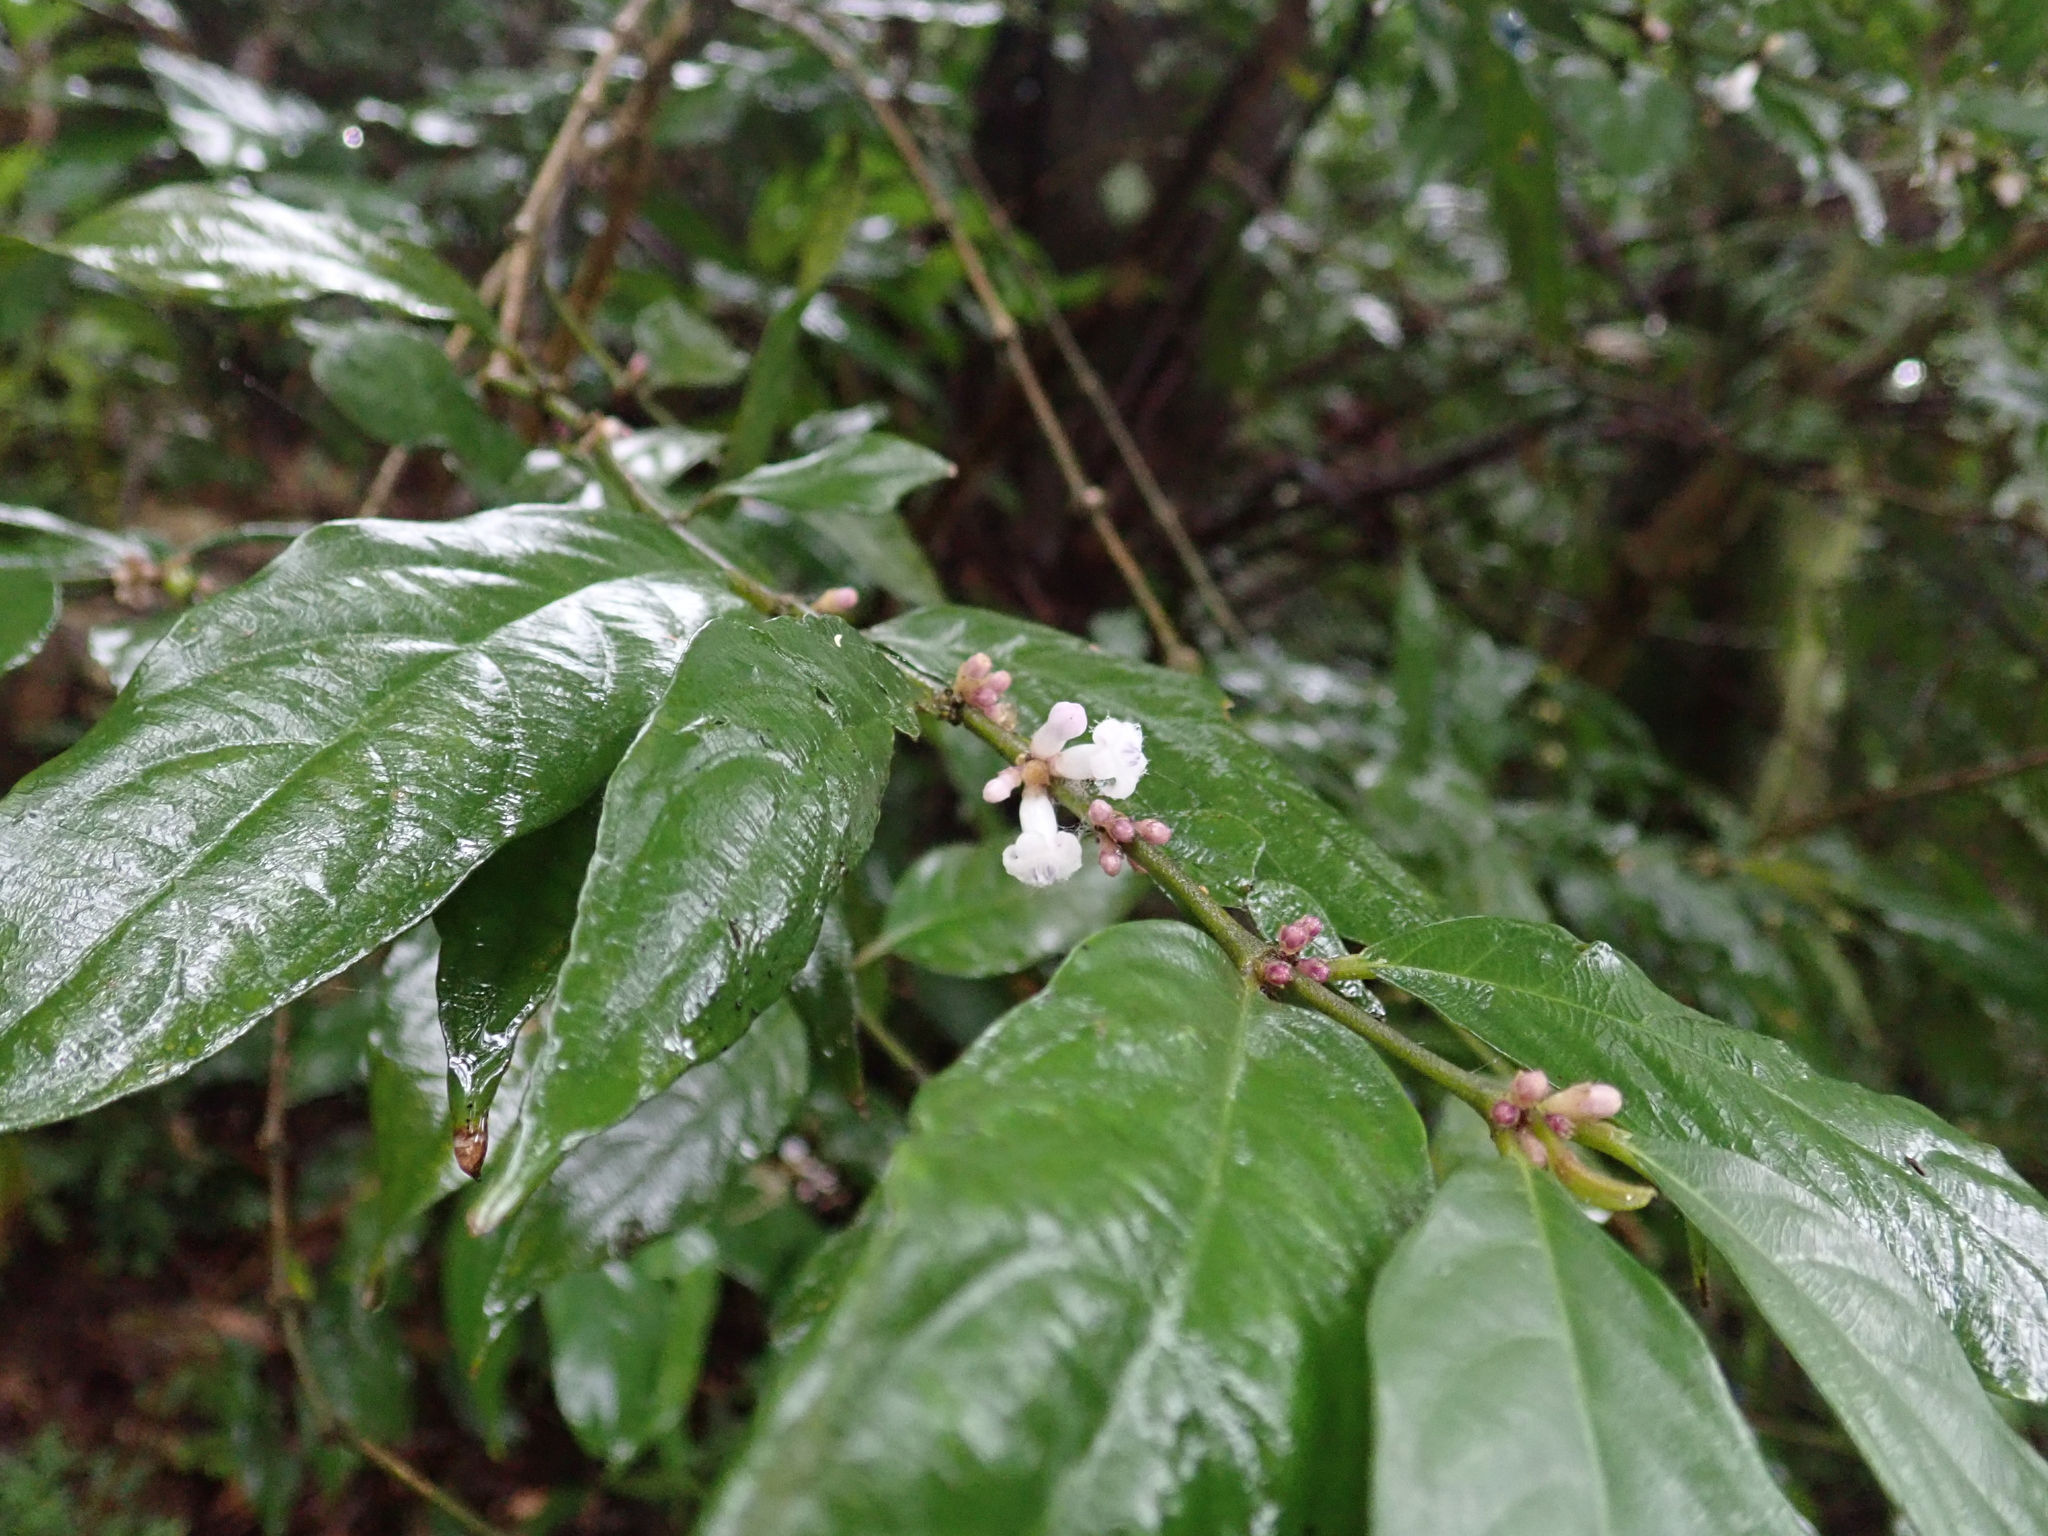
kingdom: Plantae
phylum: Tracheophyta
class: Magnoliopsida
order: Gentianales
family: Rubiaceae
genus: Lasianthus
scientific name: Lasianthus fordii
